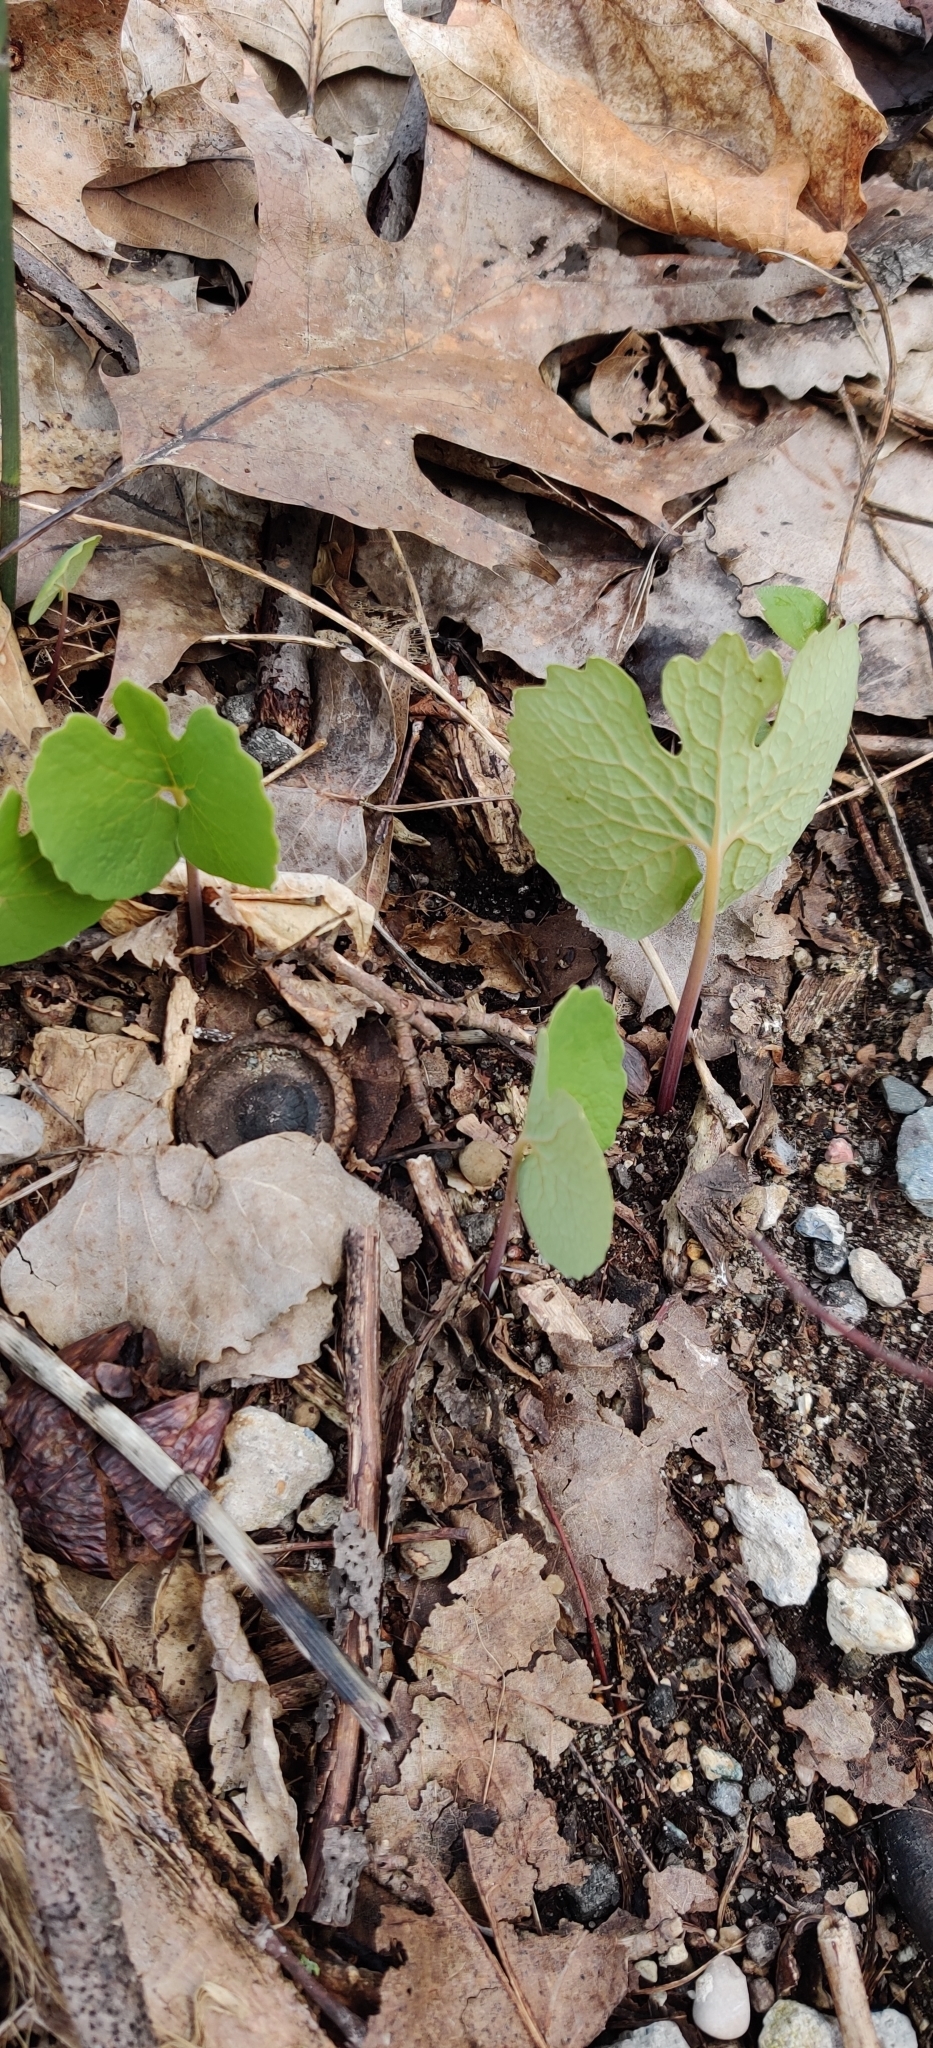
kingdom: Plantae
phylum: Tracheophyta
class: Magnoliopsida
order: Ranunculales
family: Papaveraceae
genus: Sanguinaria
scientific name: Sanguinaria canadensis
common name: Bloodroot
